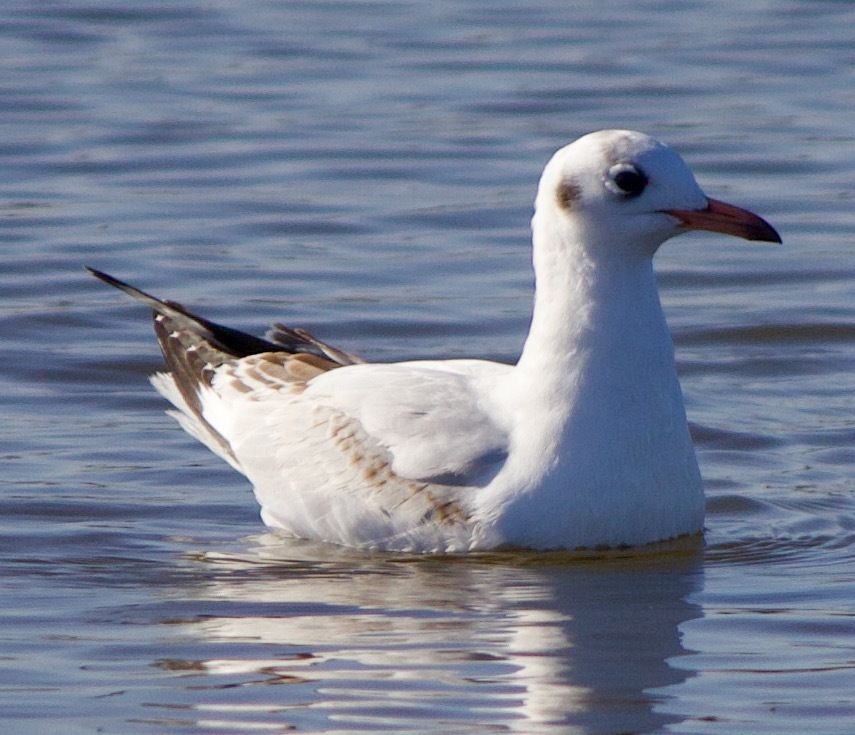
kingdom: Animalia
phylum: Chordata
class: Aves
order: Charadriiformes
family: Laridae
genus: Chroicocephalus
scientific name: Chroicocephalus maculipennis
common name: Brown-hooded gull
